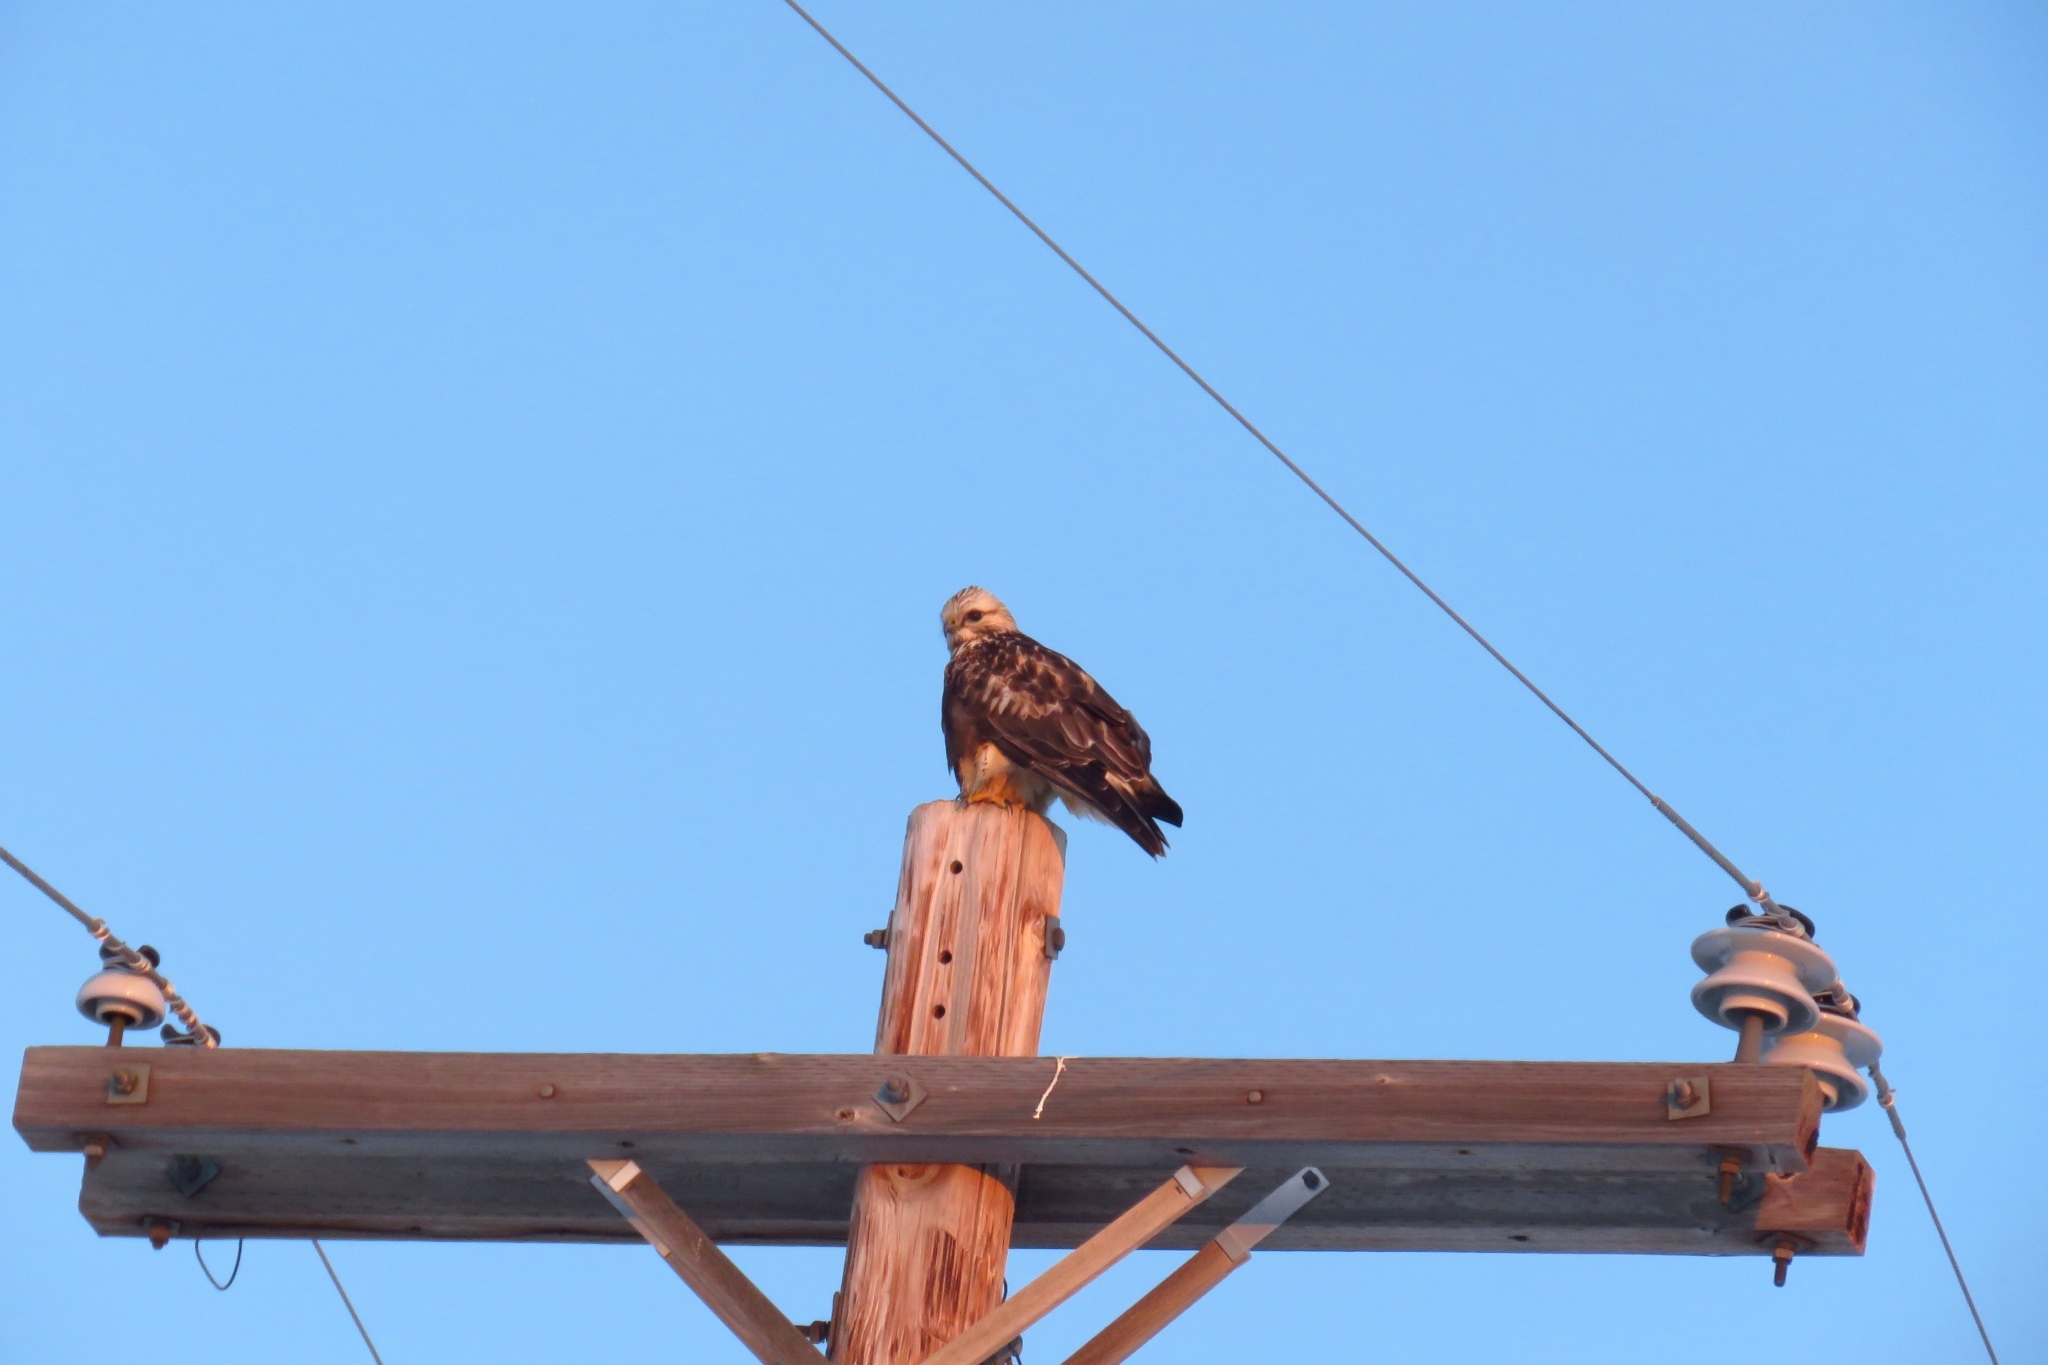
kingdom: Animalia
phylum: Chordata
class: Aves
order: Accipitriformes
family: Accipitridae
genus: Buteo
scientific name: Buteo lagopus
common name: Rough-legged buzzard
